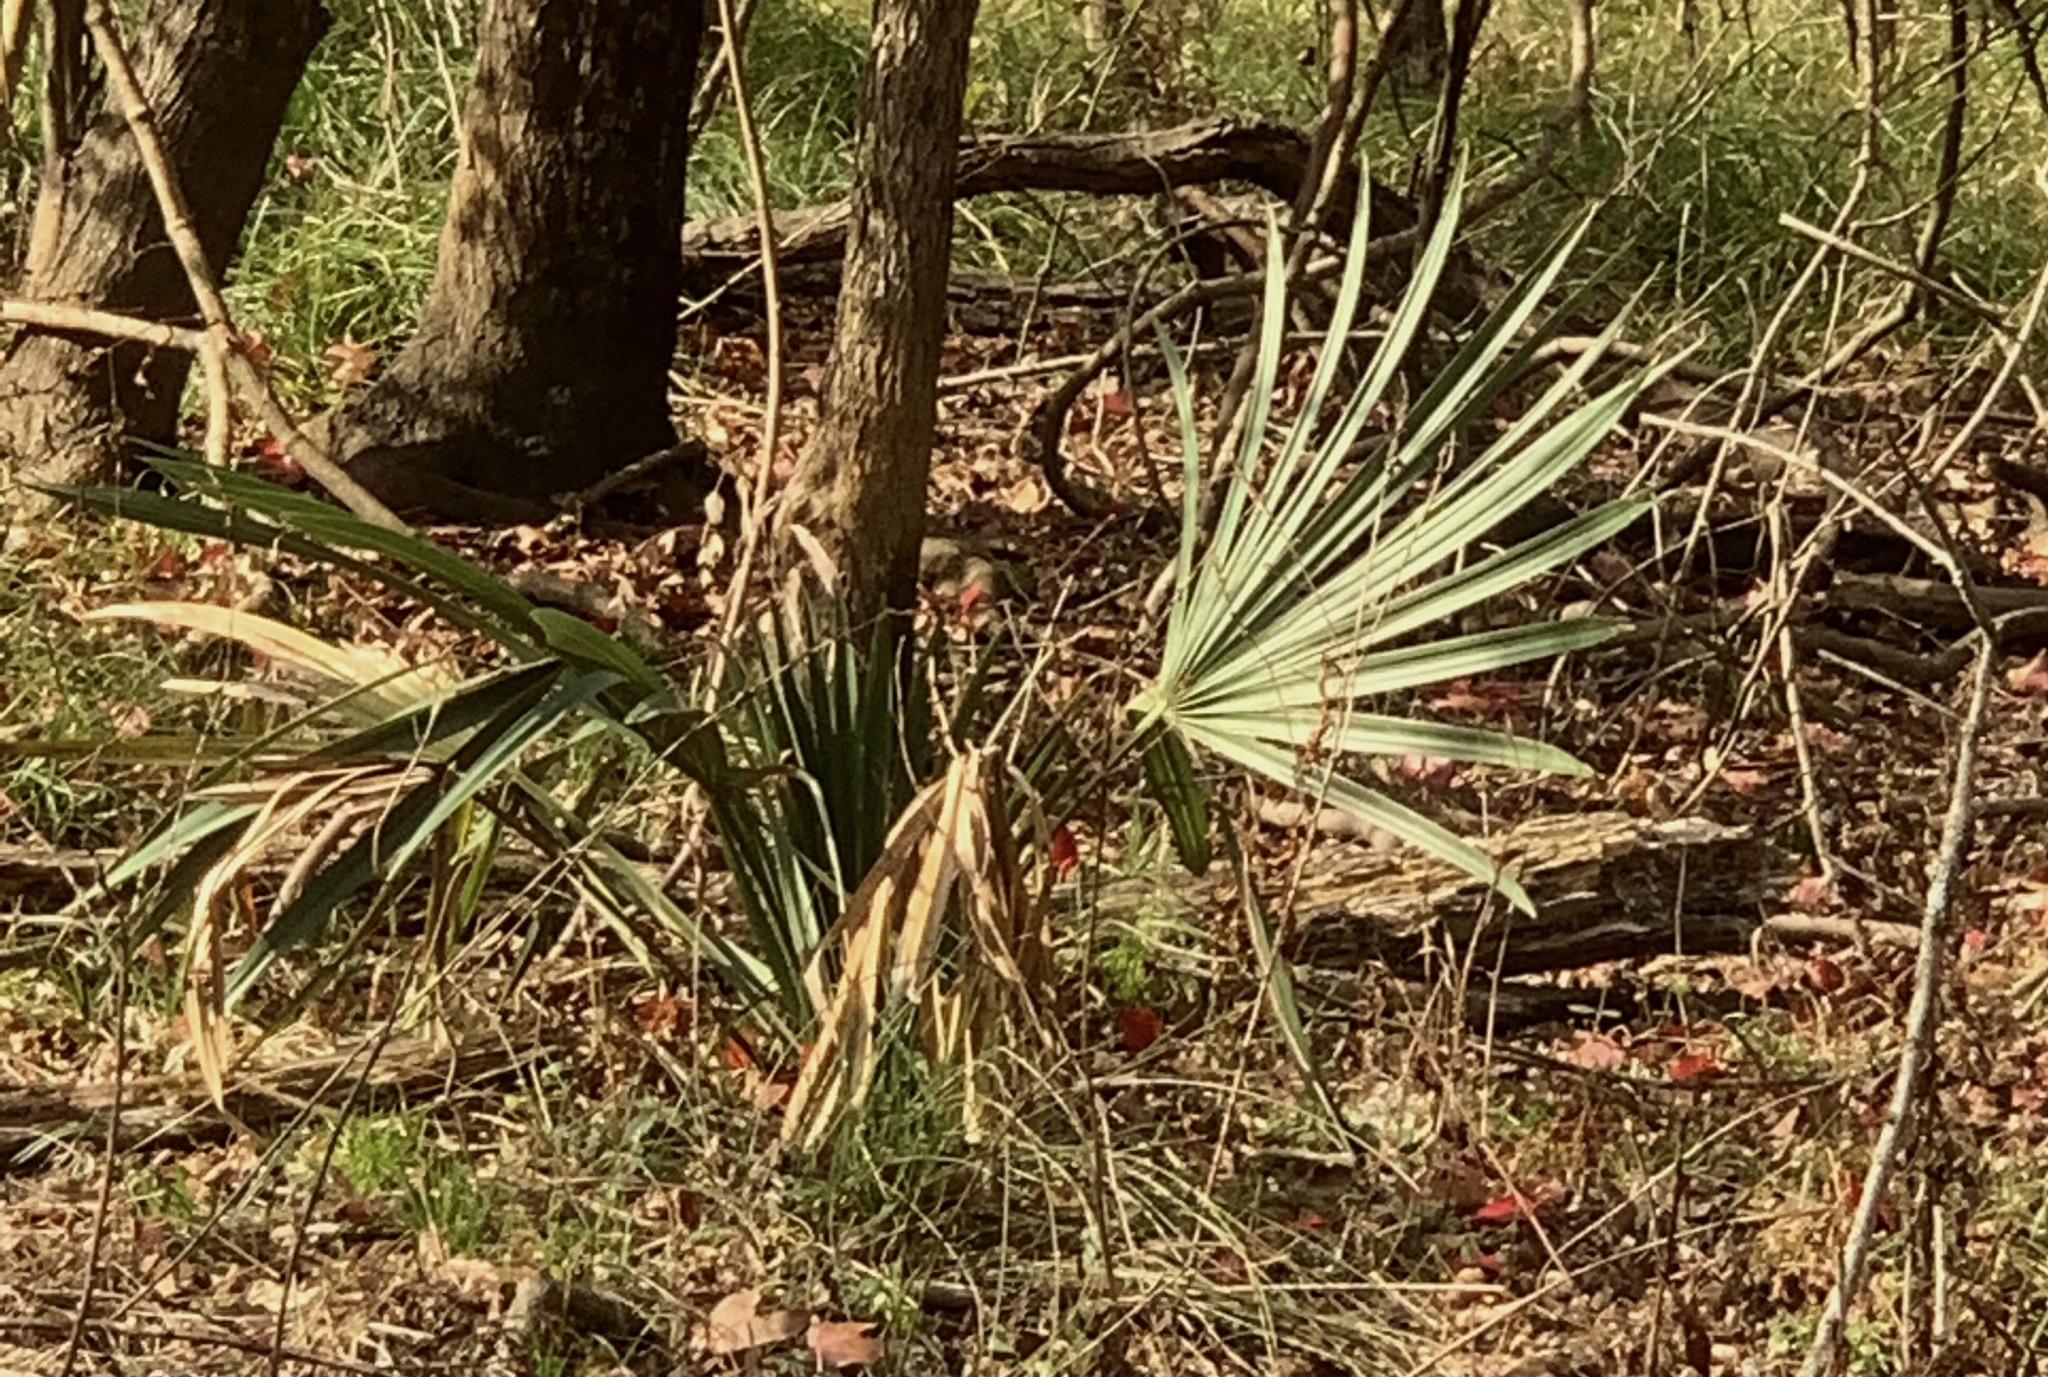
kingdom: Plantae
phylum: Tracheophyta
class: Liliopsida
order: Arecales
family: Arecaceae
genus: Sabal
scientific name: Sabal minor
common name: Dwarf palmetto
